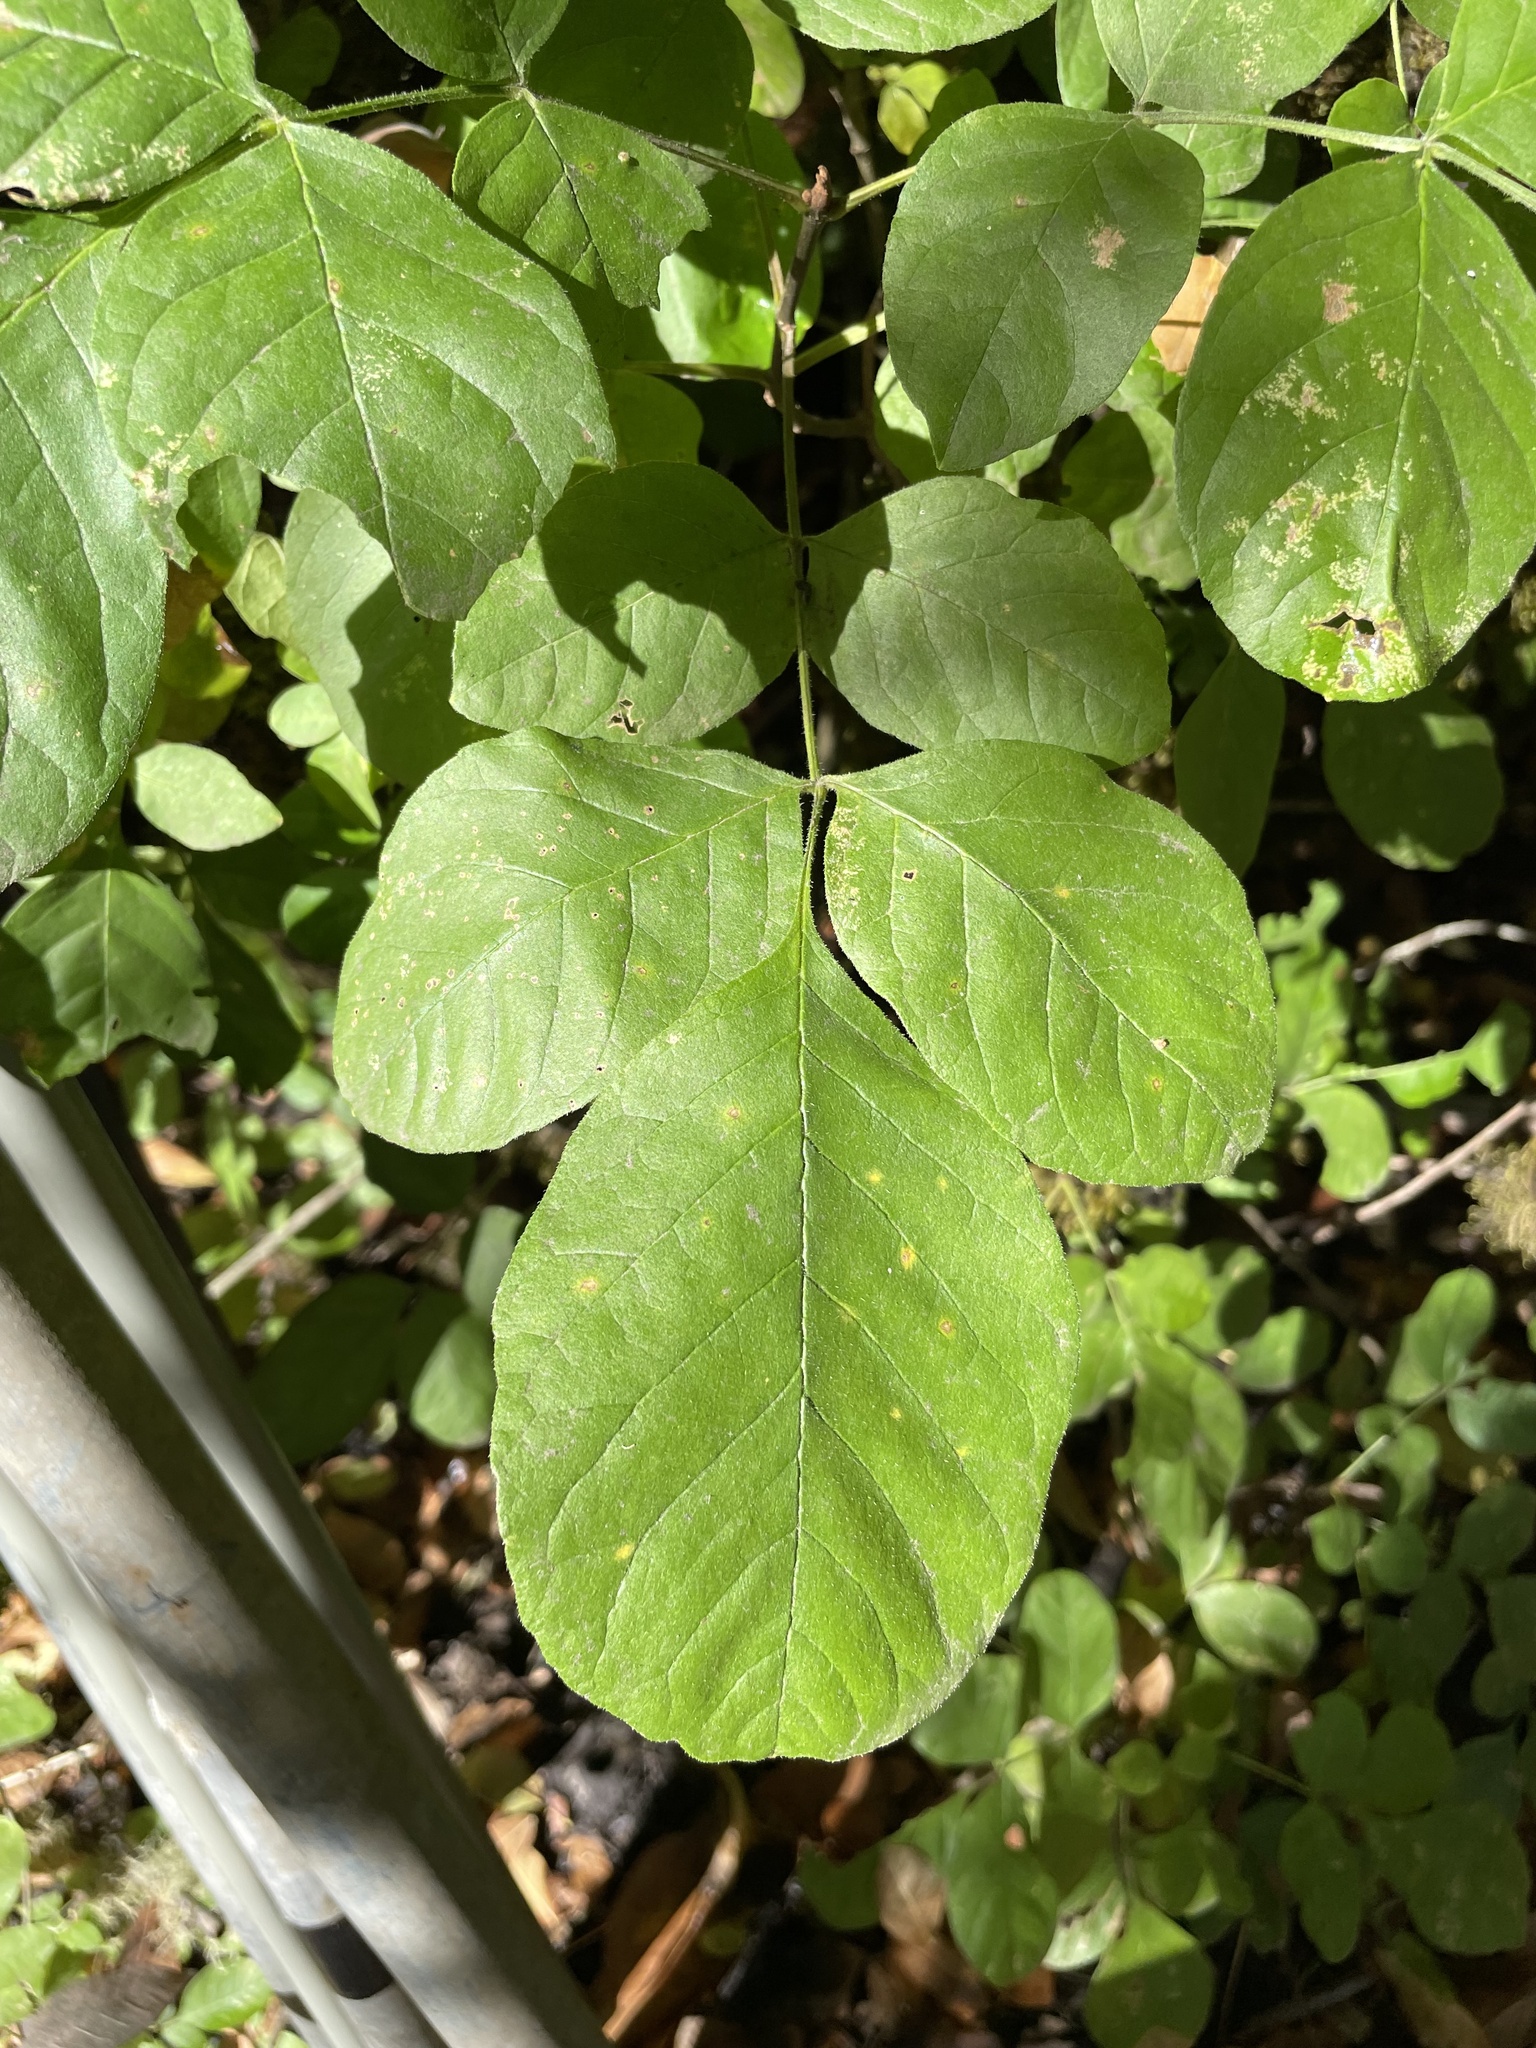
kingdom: Plantae
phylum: Tracheophyta
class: Magnoliopsida
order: Lamiales
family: Oleaceae
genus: Fraxinus
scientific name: Fraxinus latifolia
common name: Oregon ash
